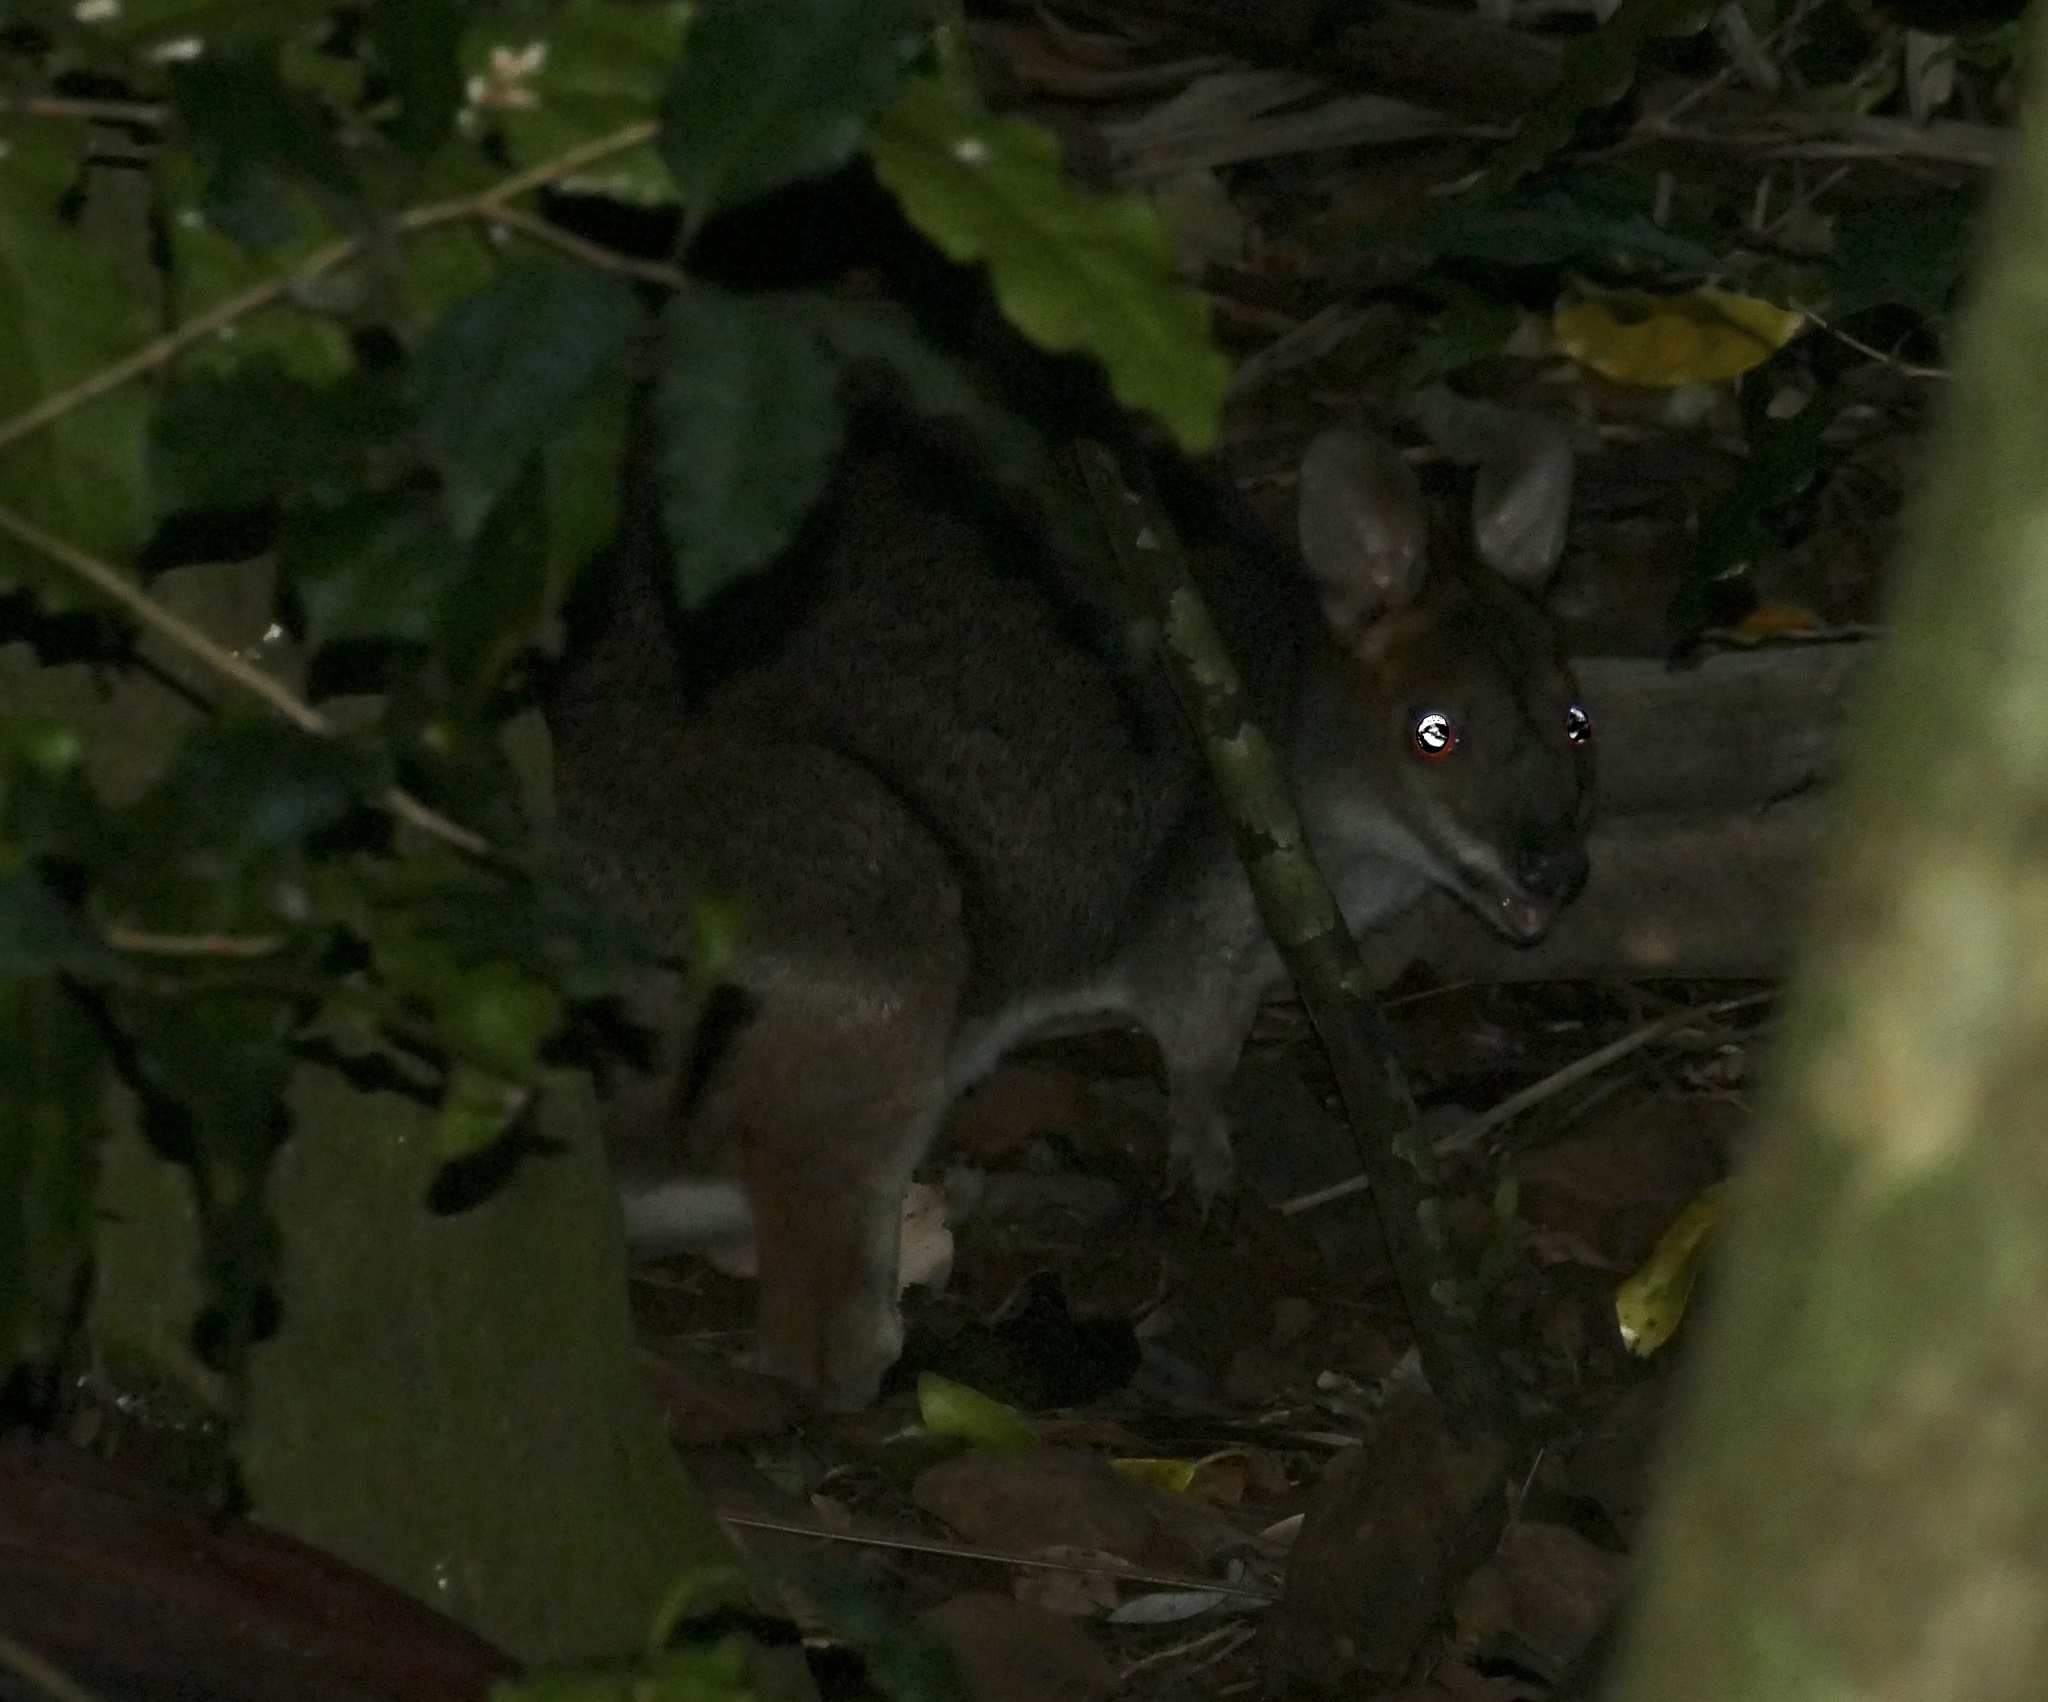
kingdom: Animalia
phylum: Chordata
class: Mammalia
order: Diprotodontia
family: Macropodidae
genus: Thylogale
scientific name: Thylogale stigmatica
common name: Red-legged pademelon
